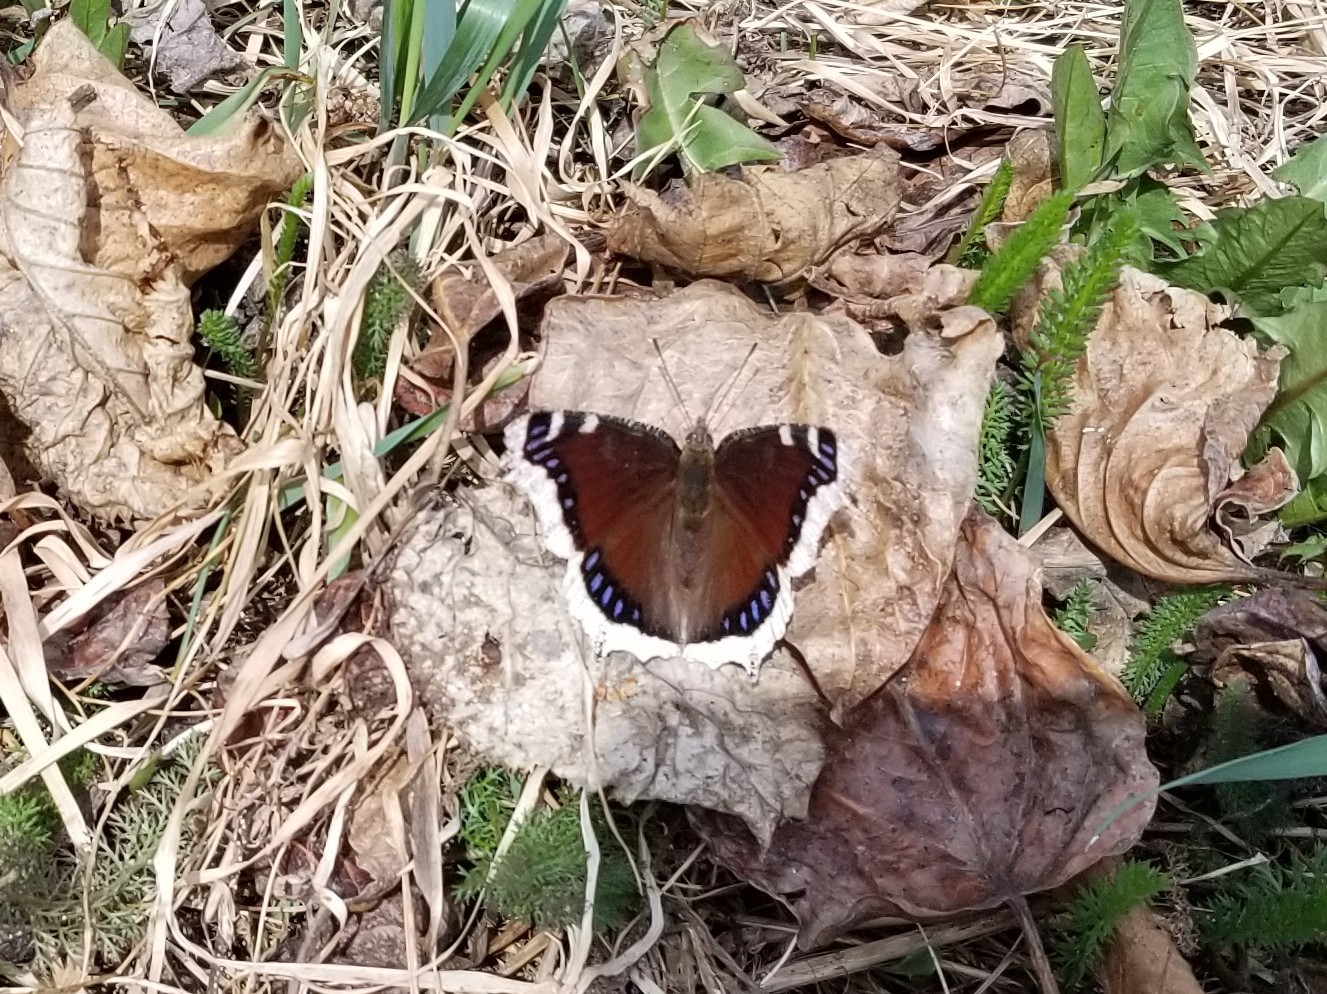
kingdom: Animalia
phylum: Arthropoda
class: Insecta
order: Lepidoptera
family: Nymphalidae
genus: Nymphalis
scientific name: Nymphalis antiopa
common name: Camberwell beauty
